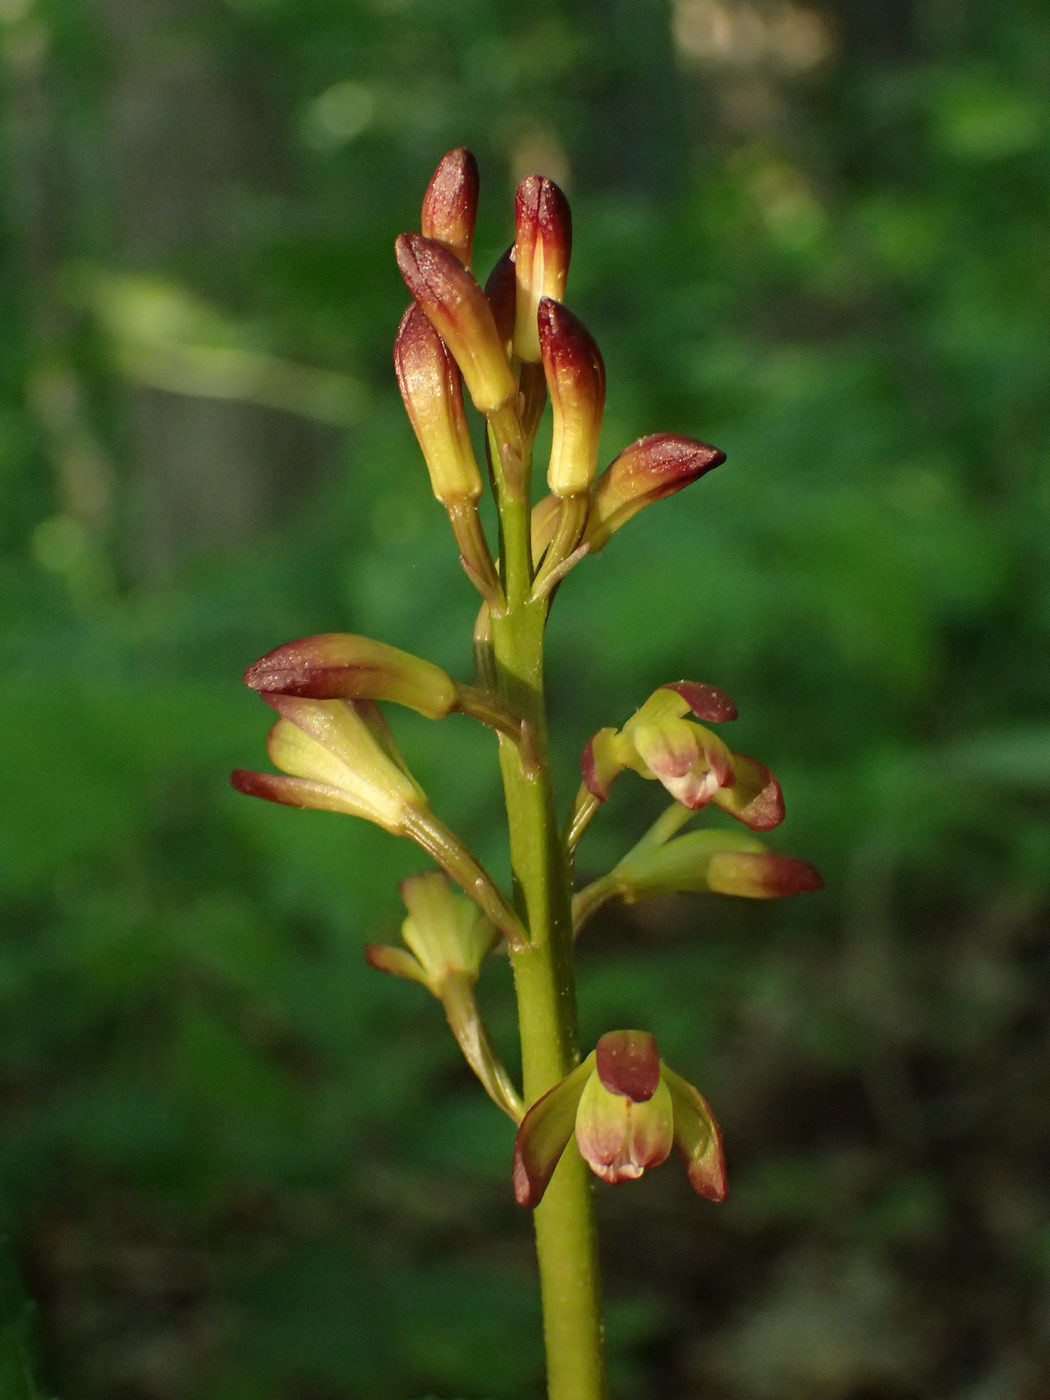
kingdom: Plantae
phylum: Tracheophyta
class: Liliopsida
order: Asparagales
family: Orchidaceae
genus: Aplectrum
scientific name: Aplectrum hyemale
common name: Adam-and-eve
